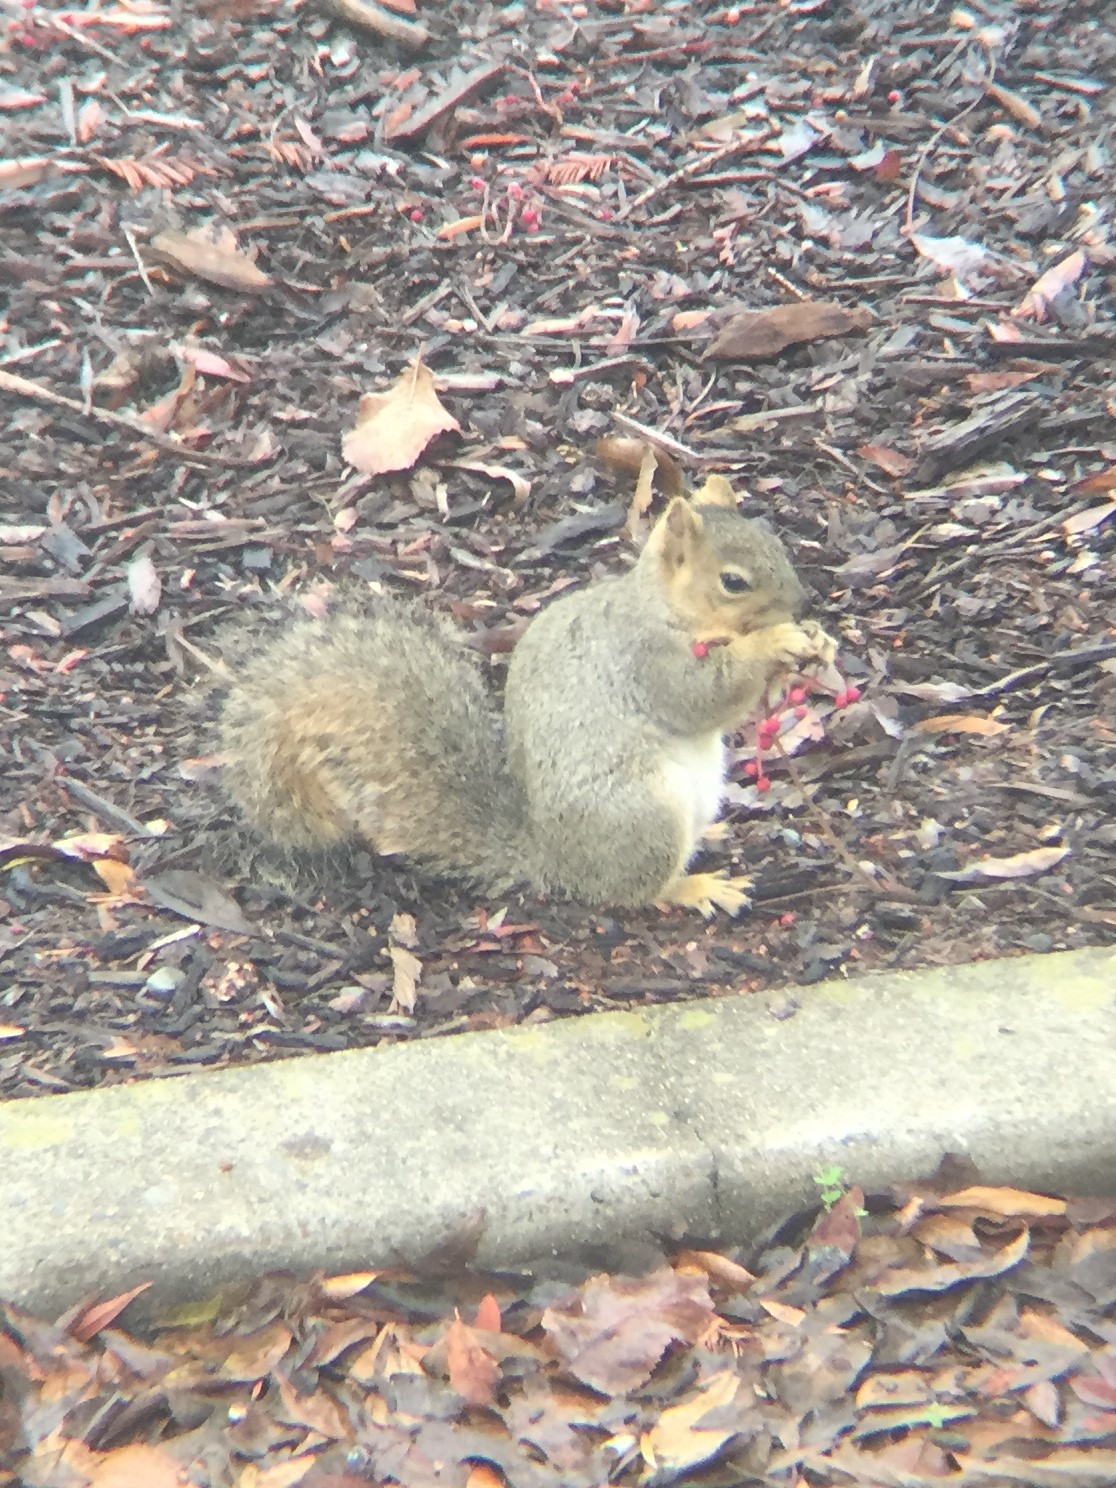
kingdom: Animalia
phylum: Chordata
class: Mammalia
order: Rodentia
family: Sciuridae
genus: Sciurus
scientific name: Sciurus niger
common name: Fox squirrel
